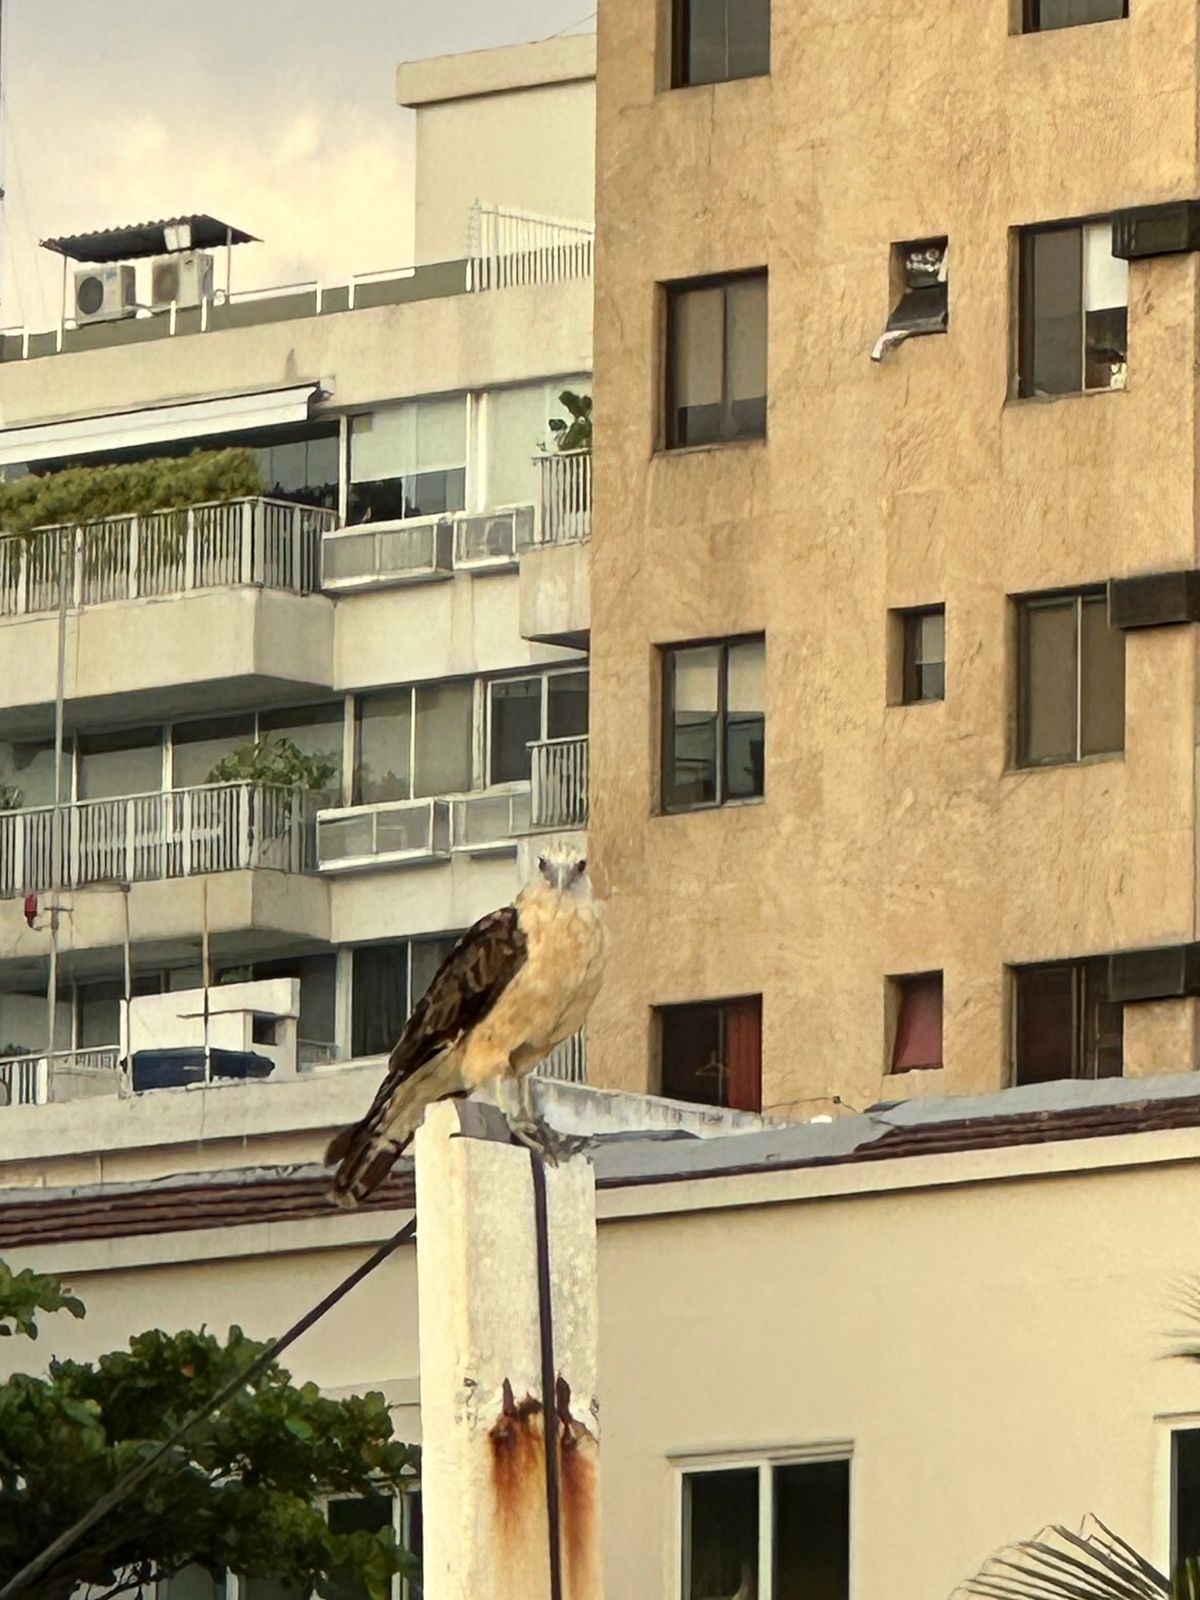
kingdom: Animalia
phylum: Chordata
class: Aves
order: Falconiformes
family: Falconidae
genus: Daptrius
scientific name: Daptrius
